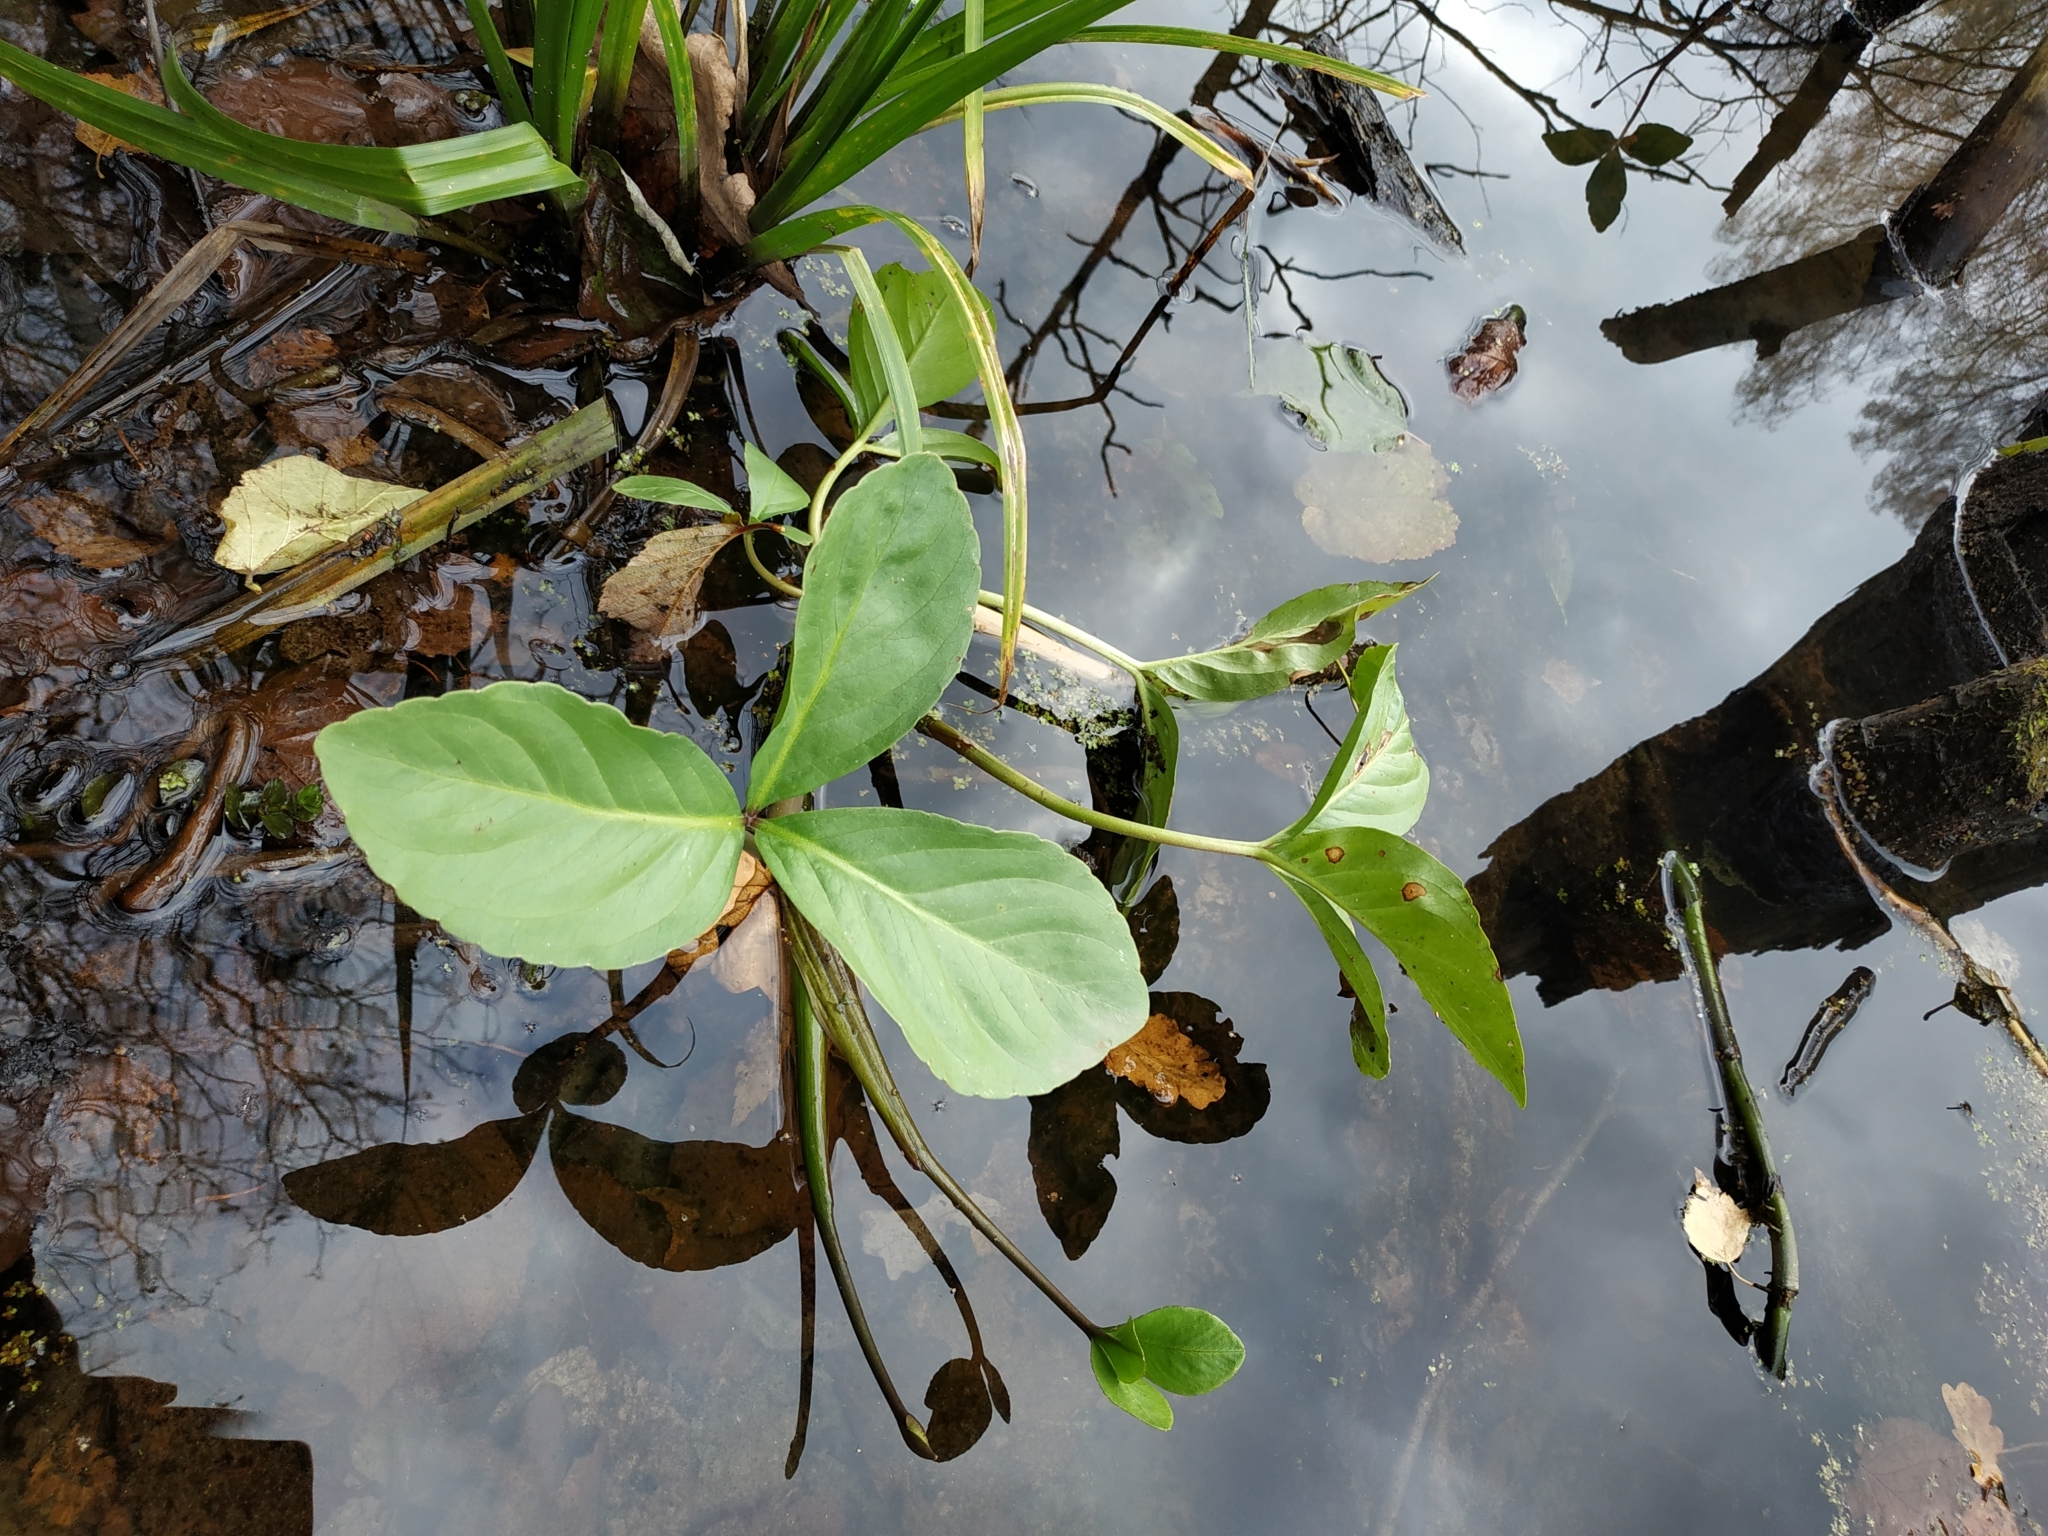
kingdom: Plantae
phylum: Tracheophyta
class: Magnoliopsida
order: Asterales
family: Menyanthaceae
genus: Menyanthes
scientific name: Menyanthes trifoliata
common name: Bogbean
